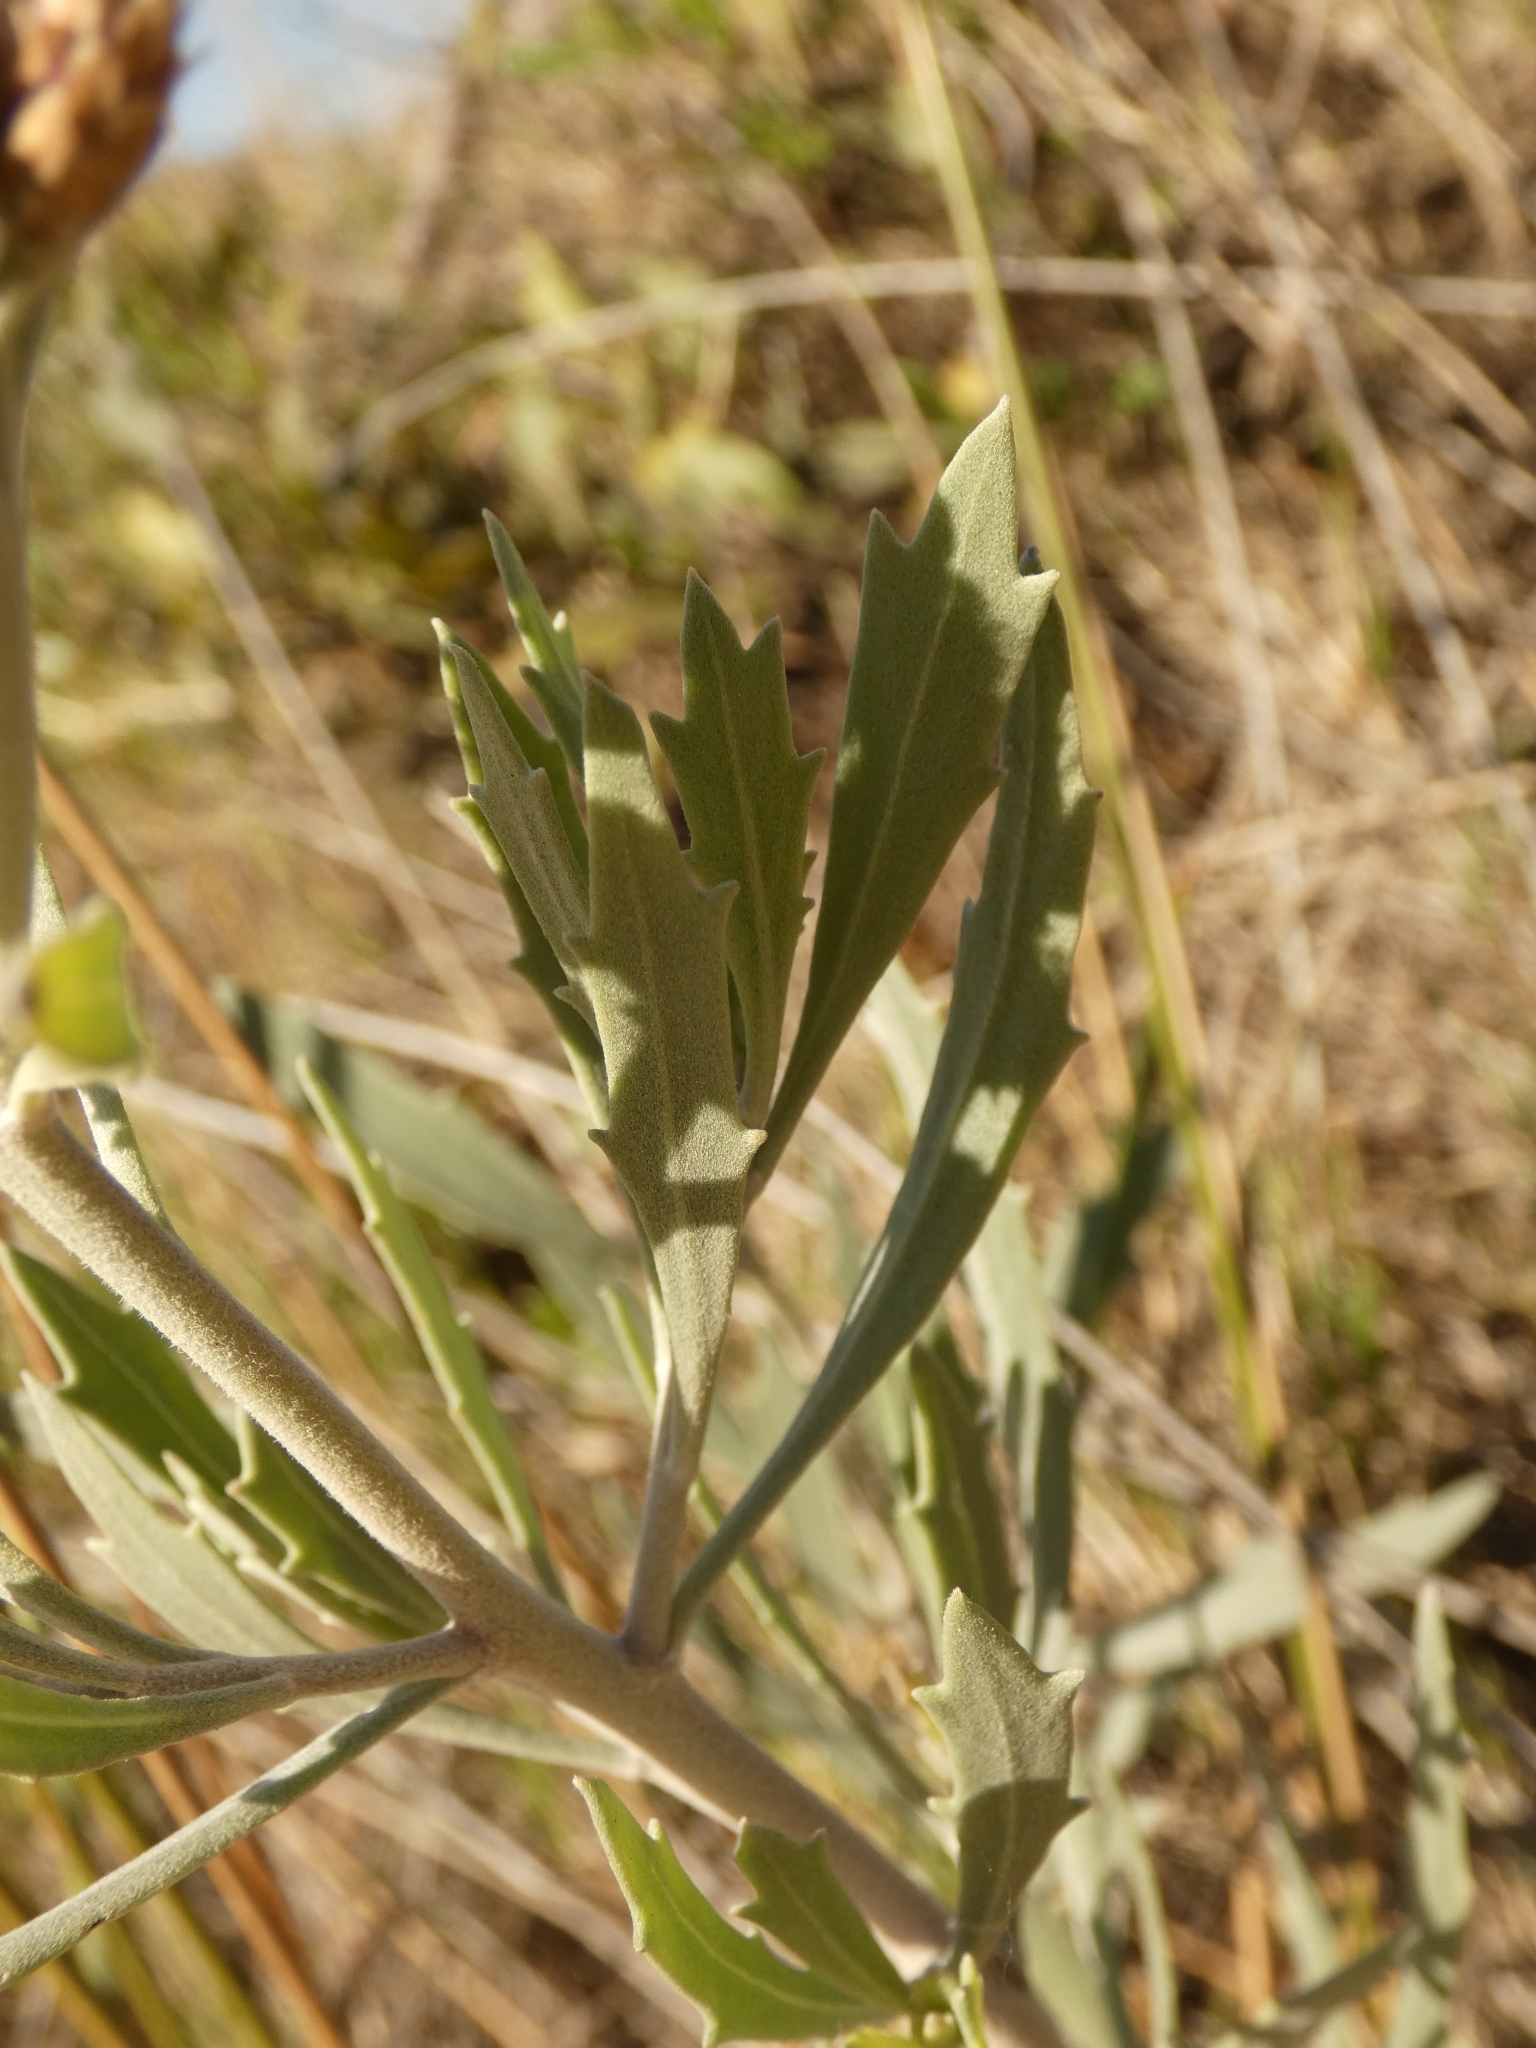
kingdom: Plantae
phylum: Tracheophyta
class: Magnoliopsida
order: Asterales
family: Asteraceae
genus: Tessaria
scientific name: Tessaria absinthioides
